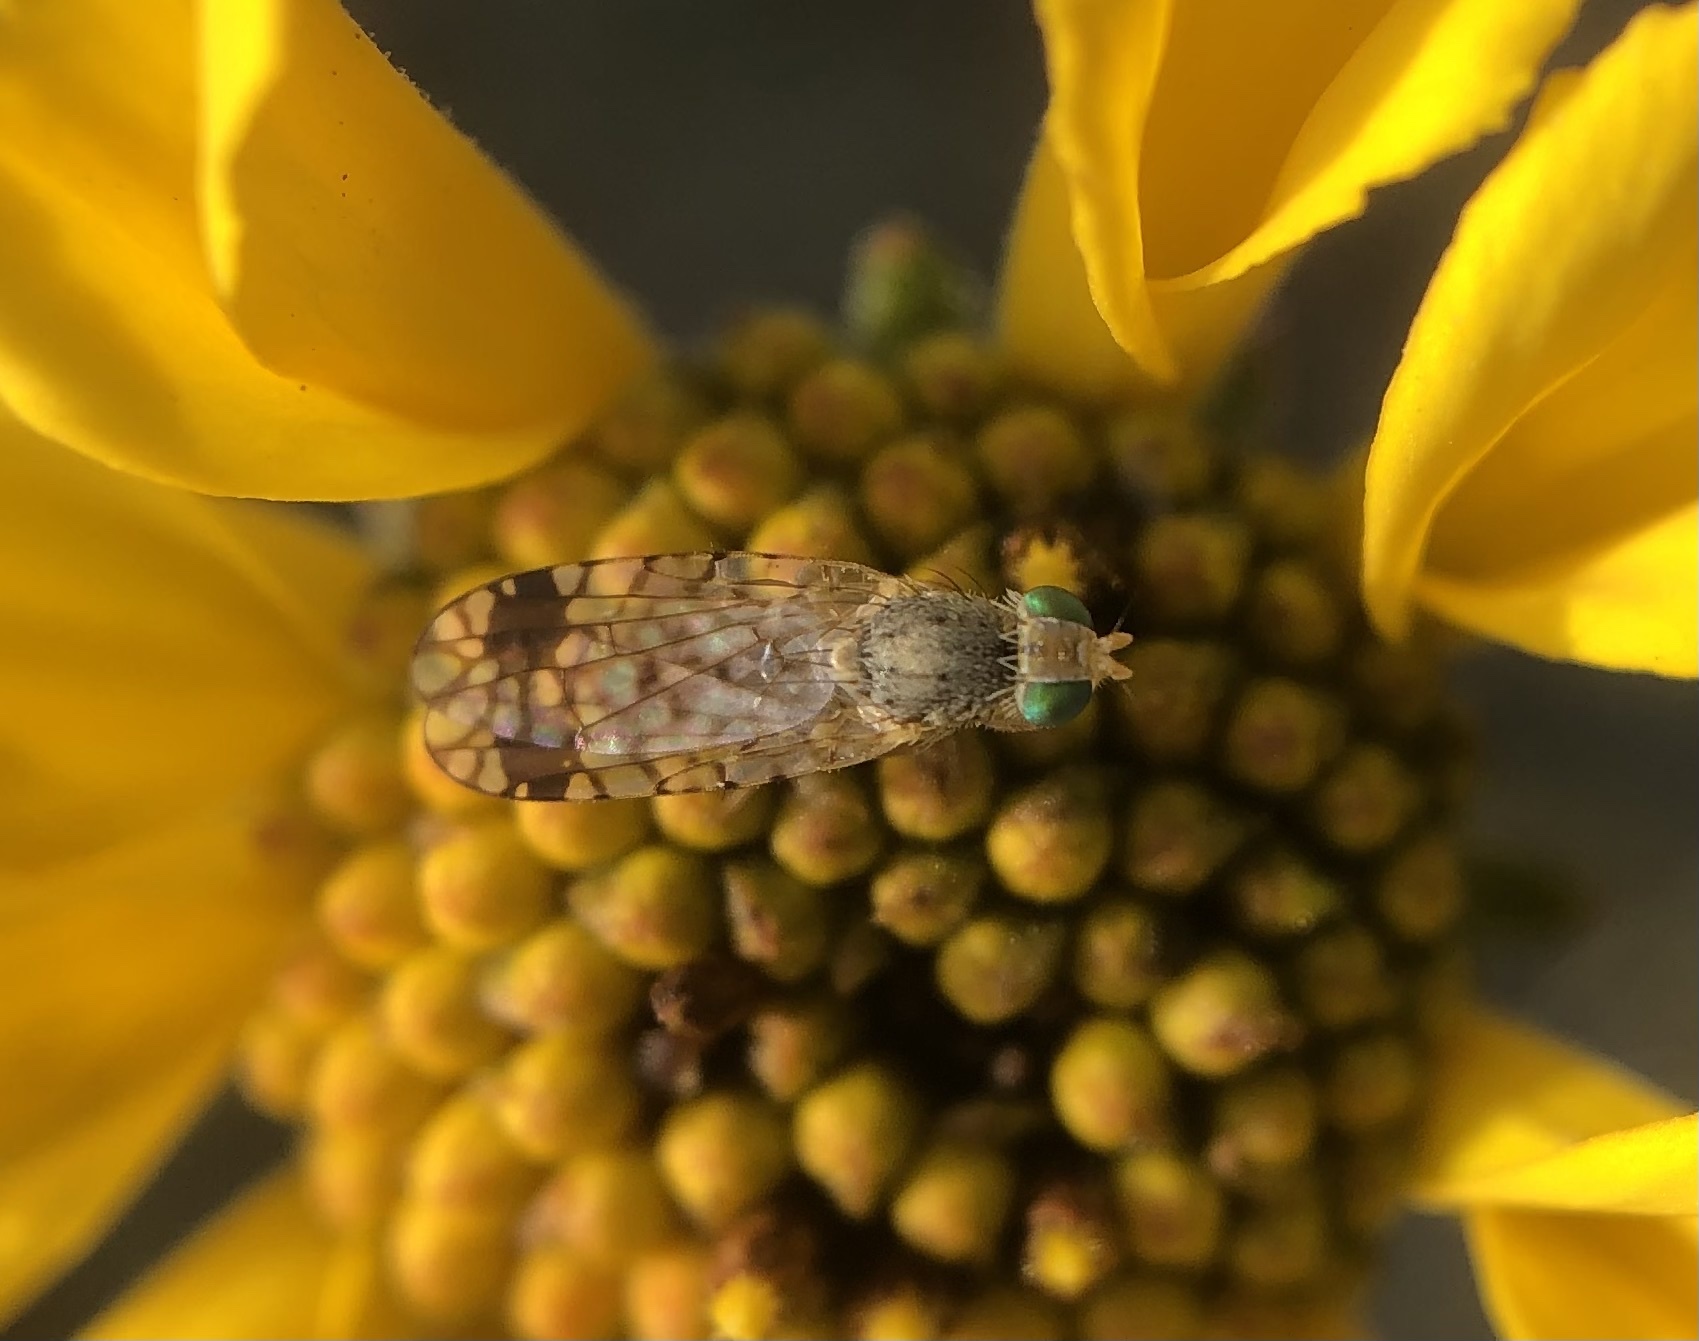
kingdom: Animalia
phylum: Arthropoda
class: Insecta
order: Diptera
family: Tephritidae
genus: Euarestoides
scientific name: Euarestoides acutangulus
